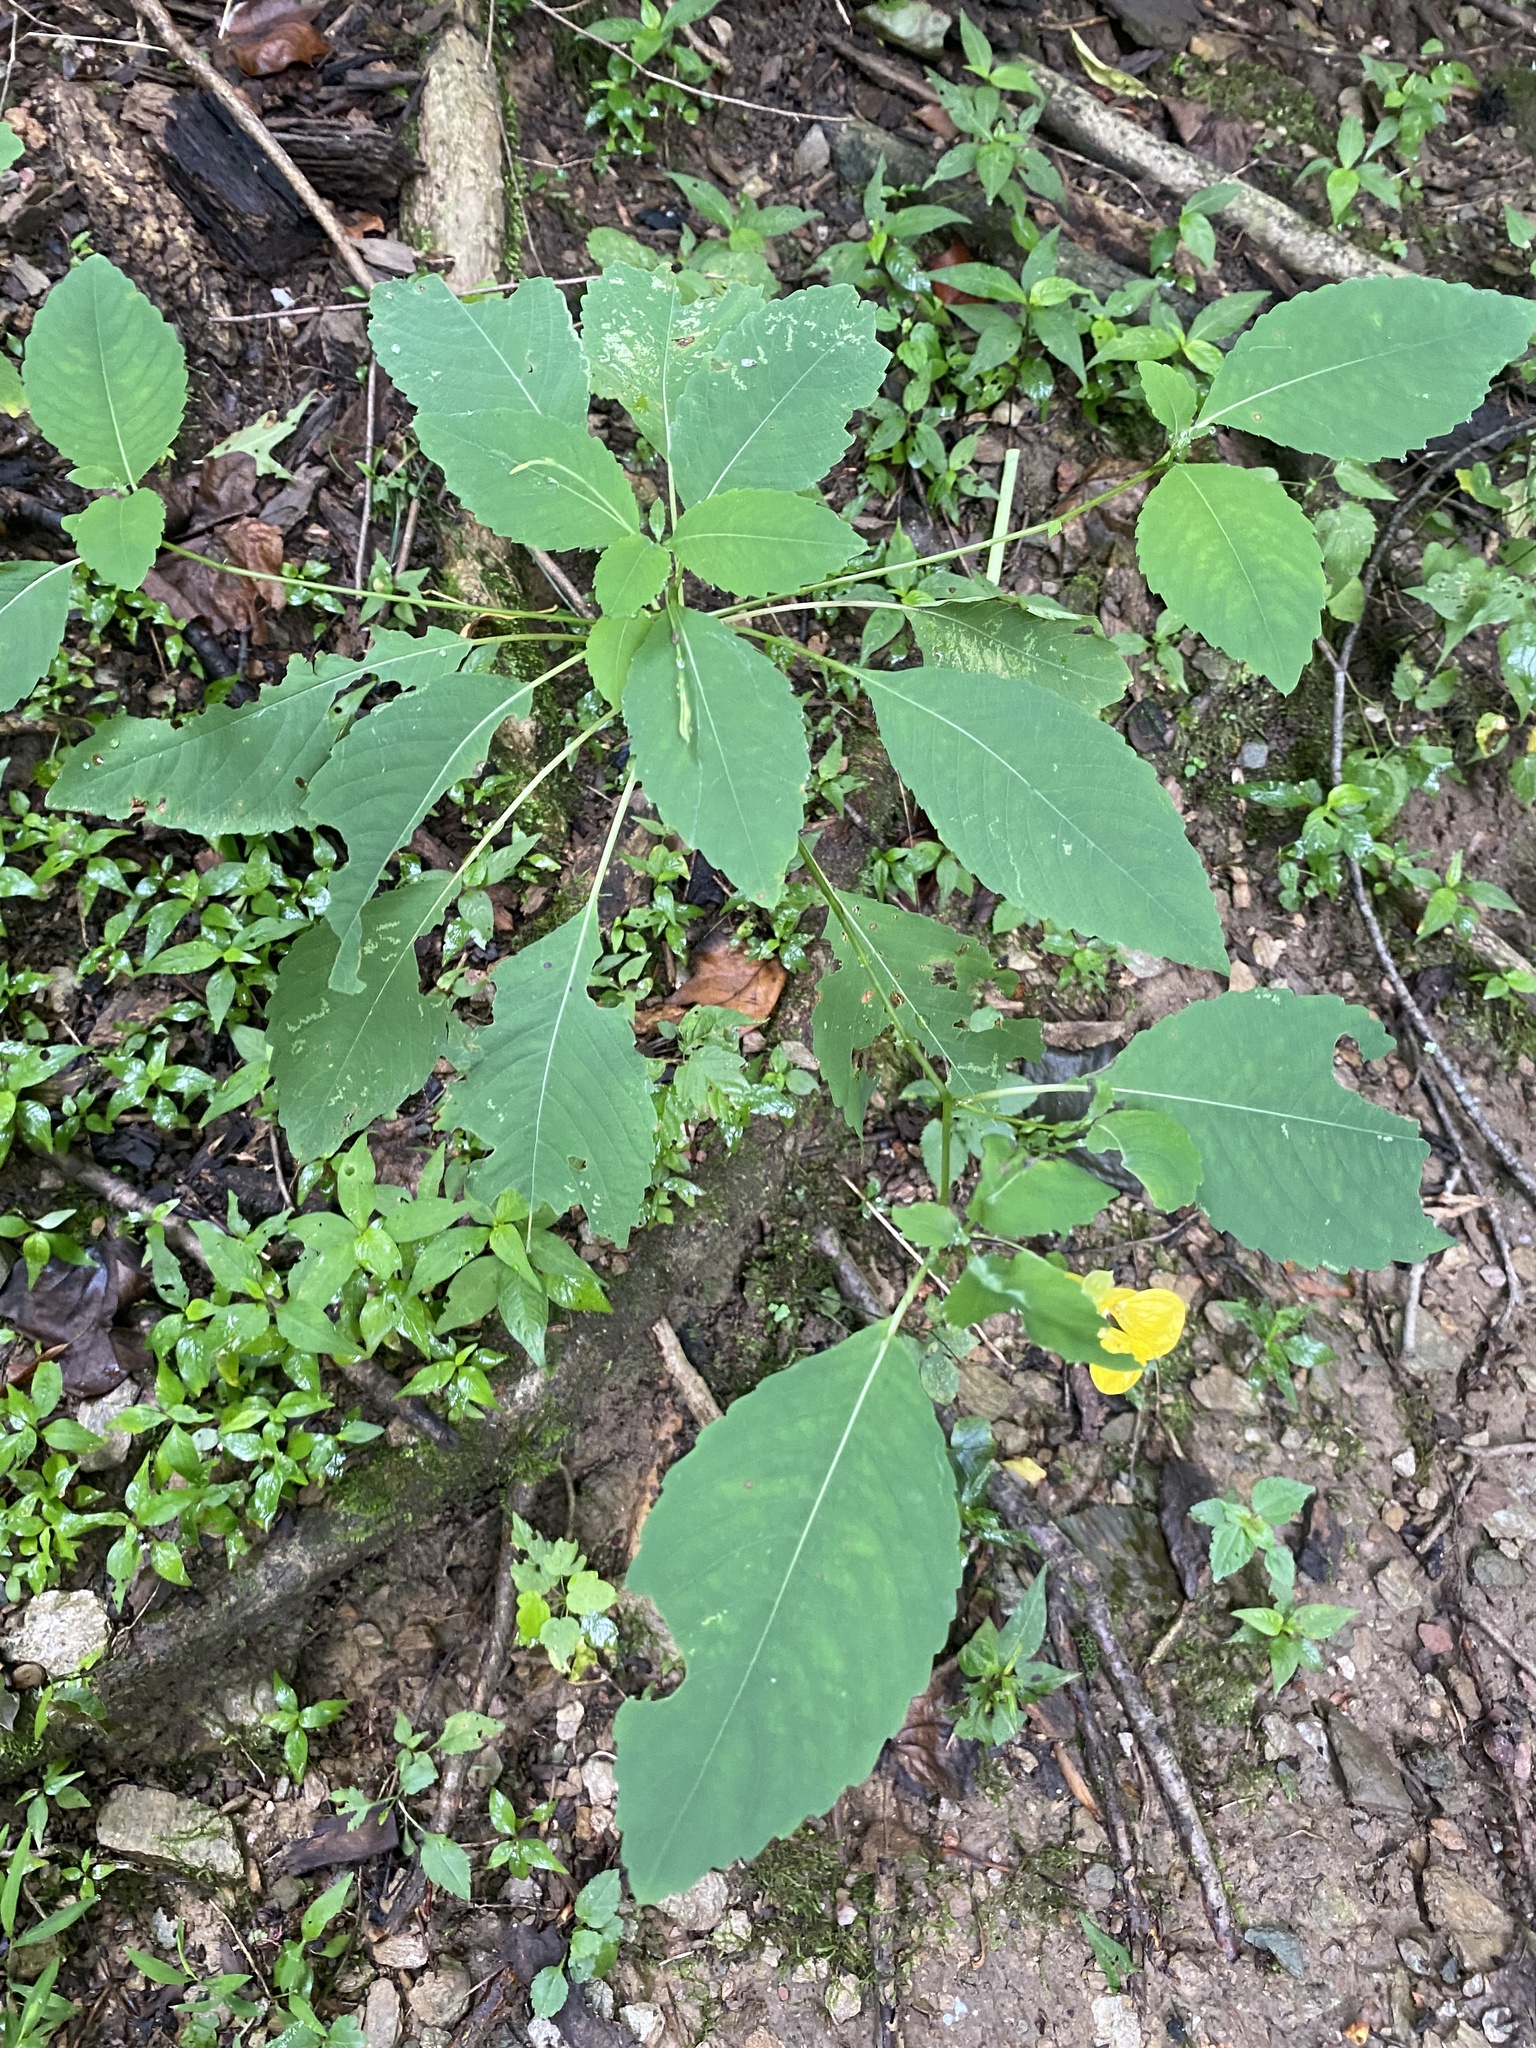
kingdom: Plantae
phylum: Tracheophyta
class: Magnoliopsida
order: Ericales
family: Balsaminaceae
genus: Impatiens
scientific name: Impatiens pallida
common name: Pale snapweed
